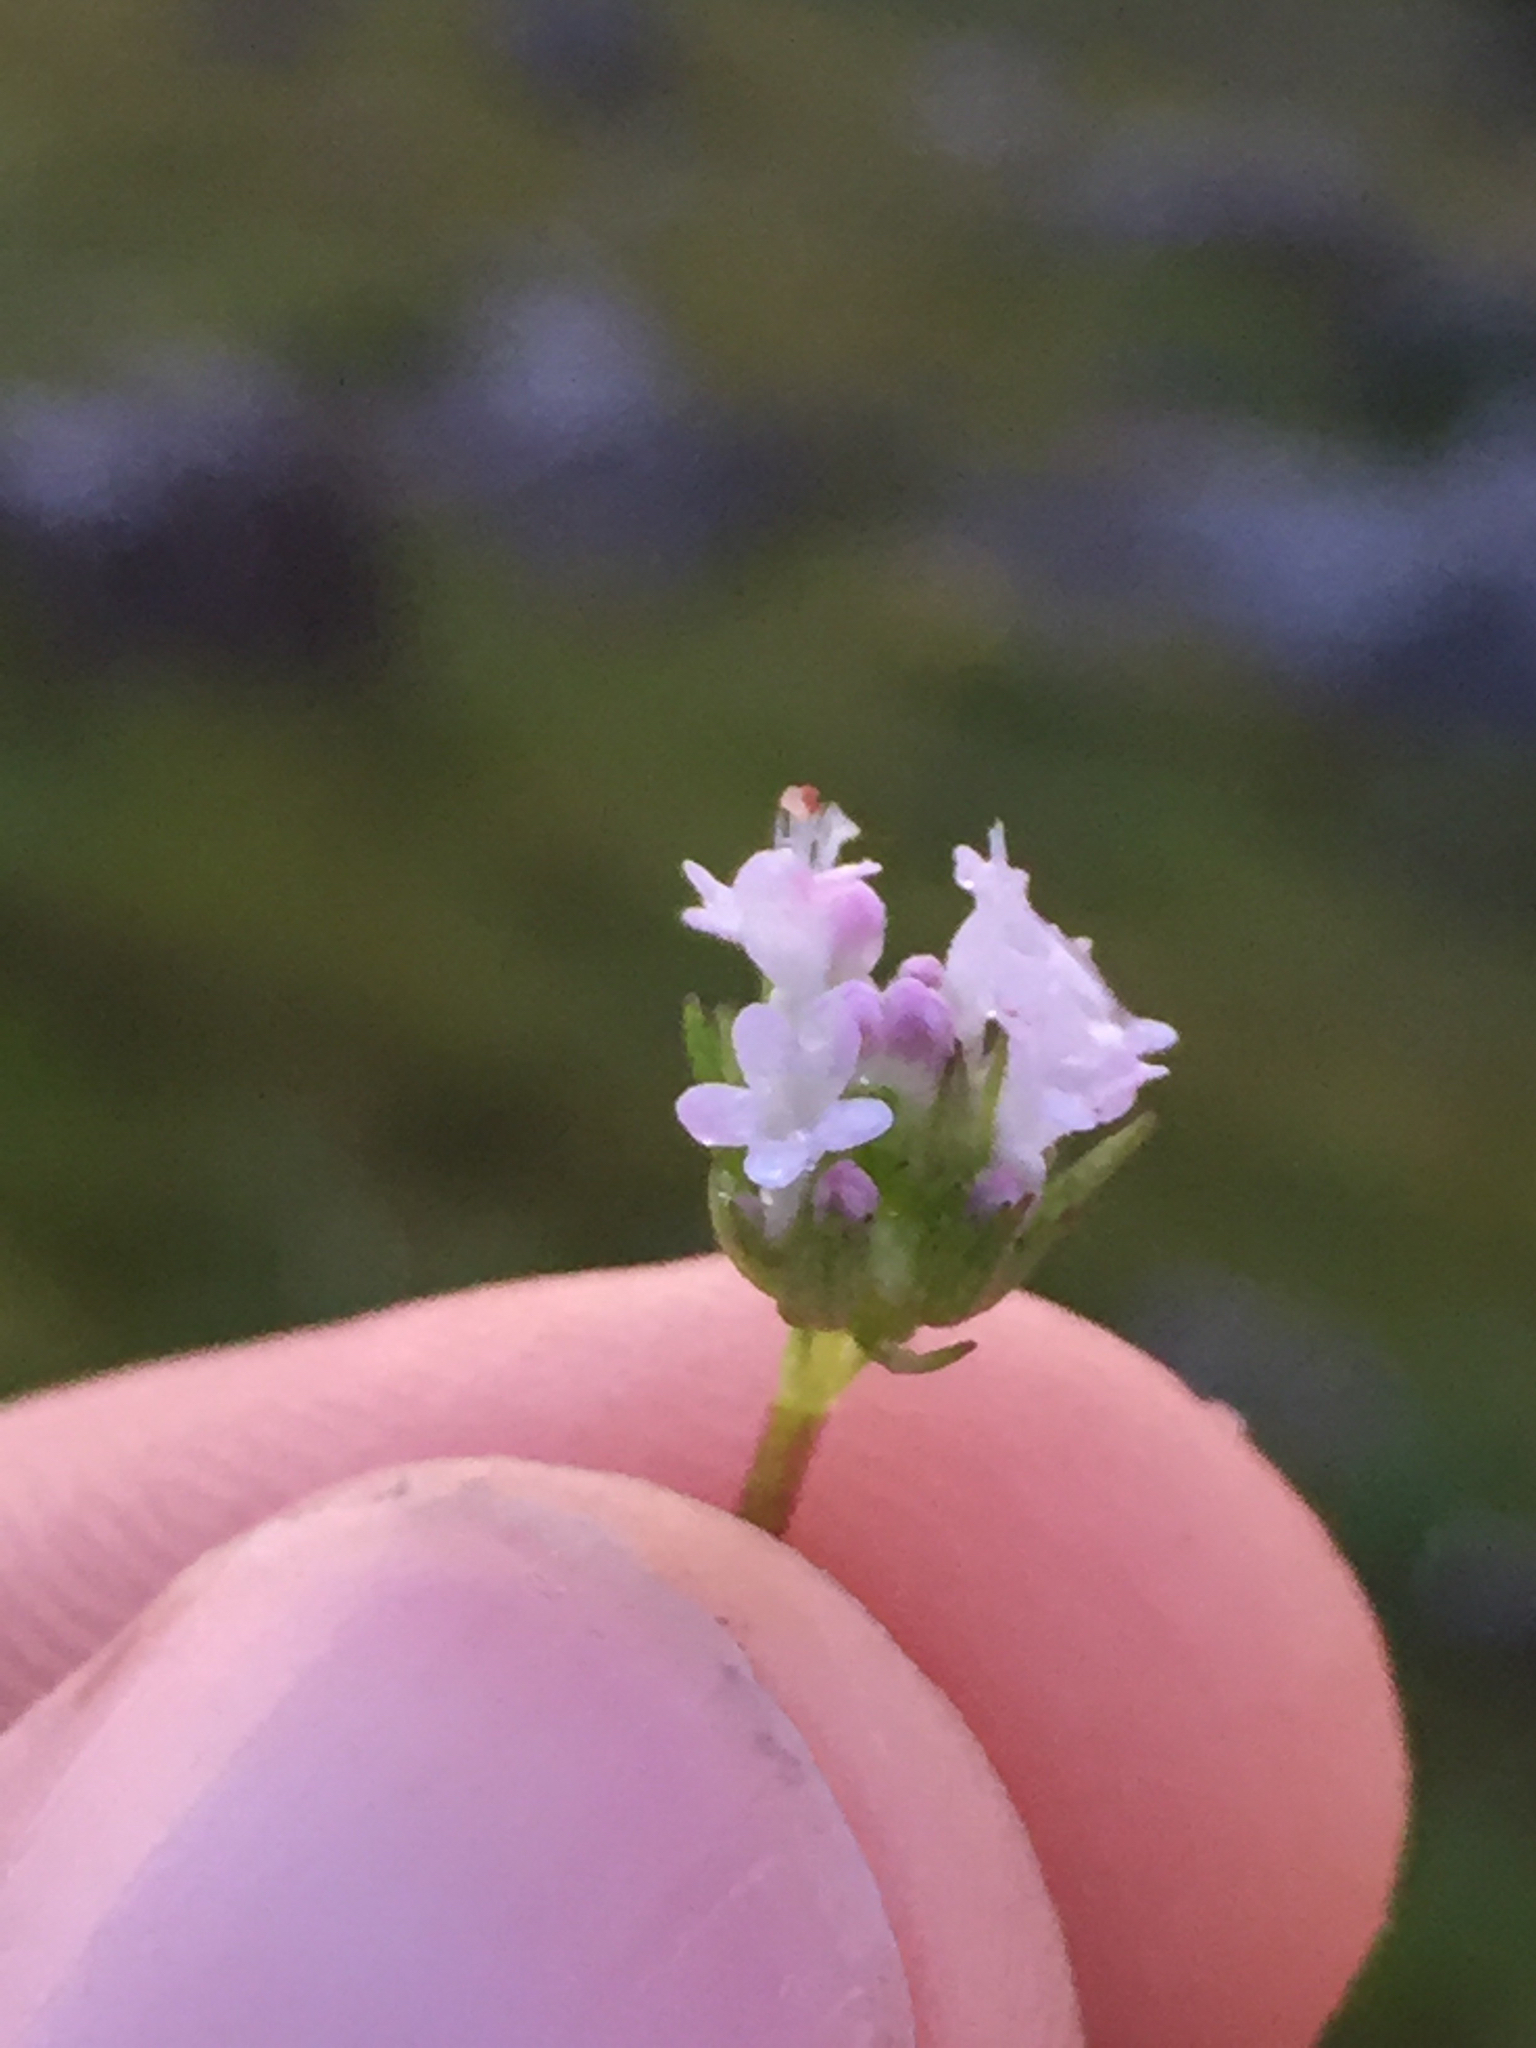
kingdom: Plantae
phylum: Tracheophyta
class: Magnoliopsida
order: Dipsacales
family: Caprifoliaceae
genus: Plectritis
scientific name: Plectritis macroptera
